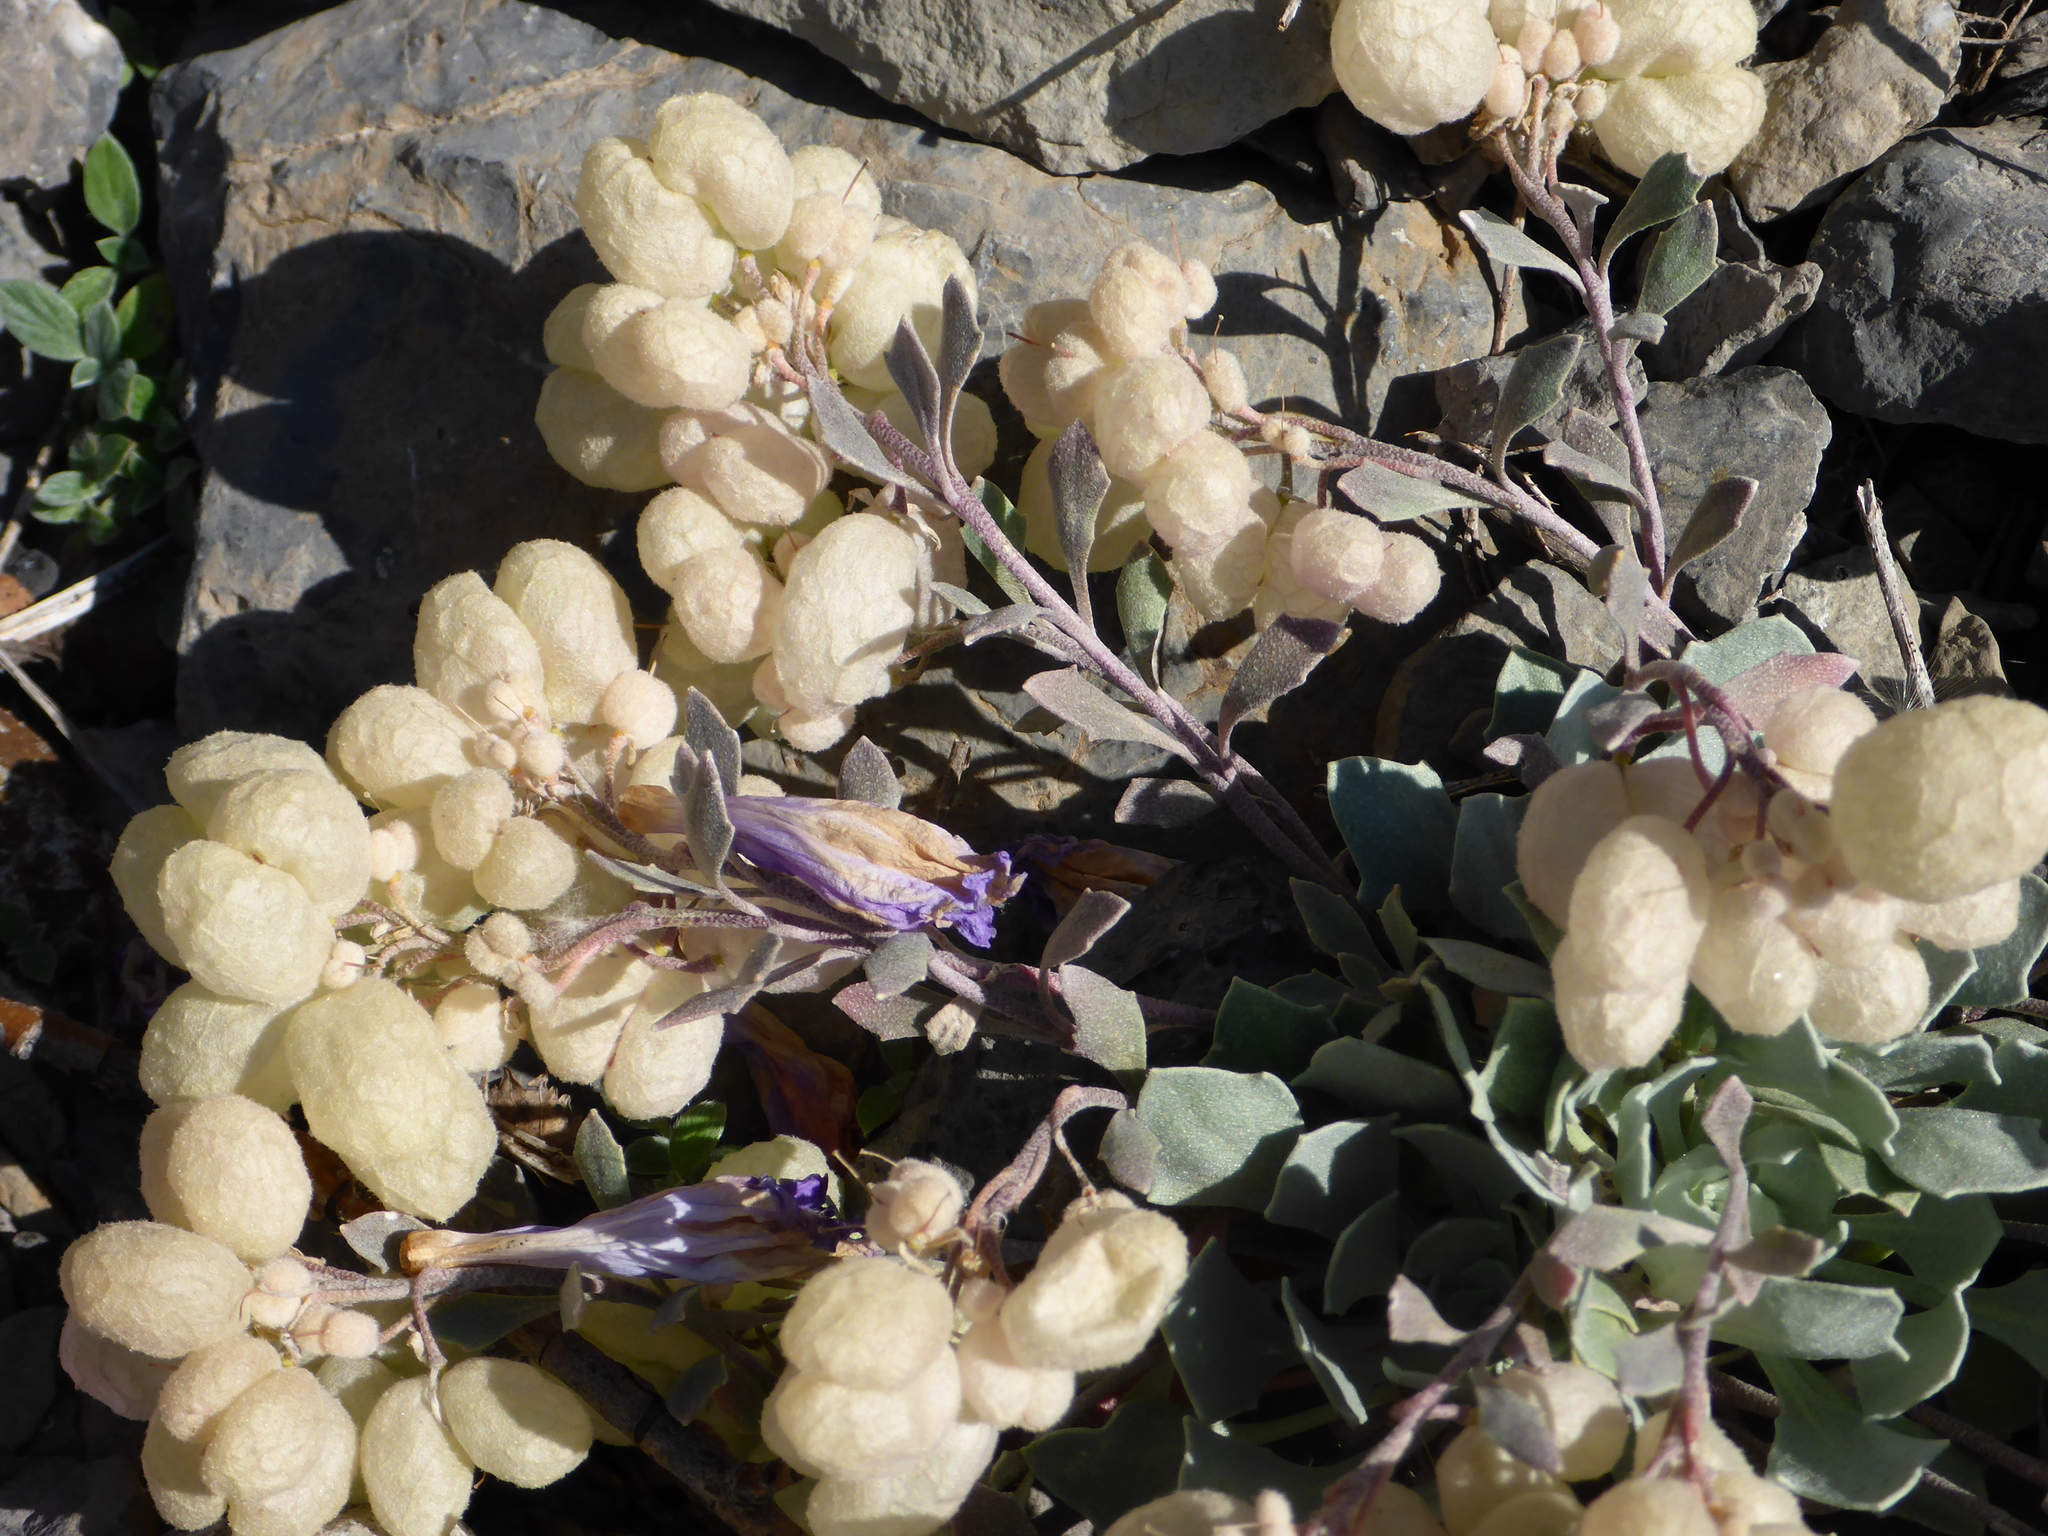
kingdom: Plantae
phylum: Tracheophyta
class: Magnoliopsida
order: Brassicales
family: Brassicaceae
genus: Physaria
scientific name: Physaria didymocarpa
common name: Common twinpod
